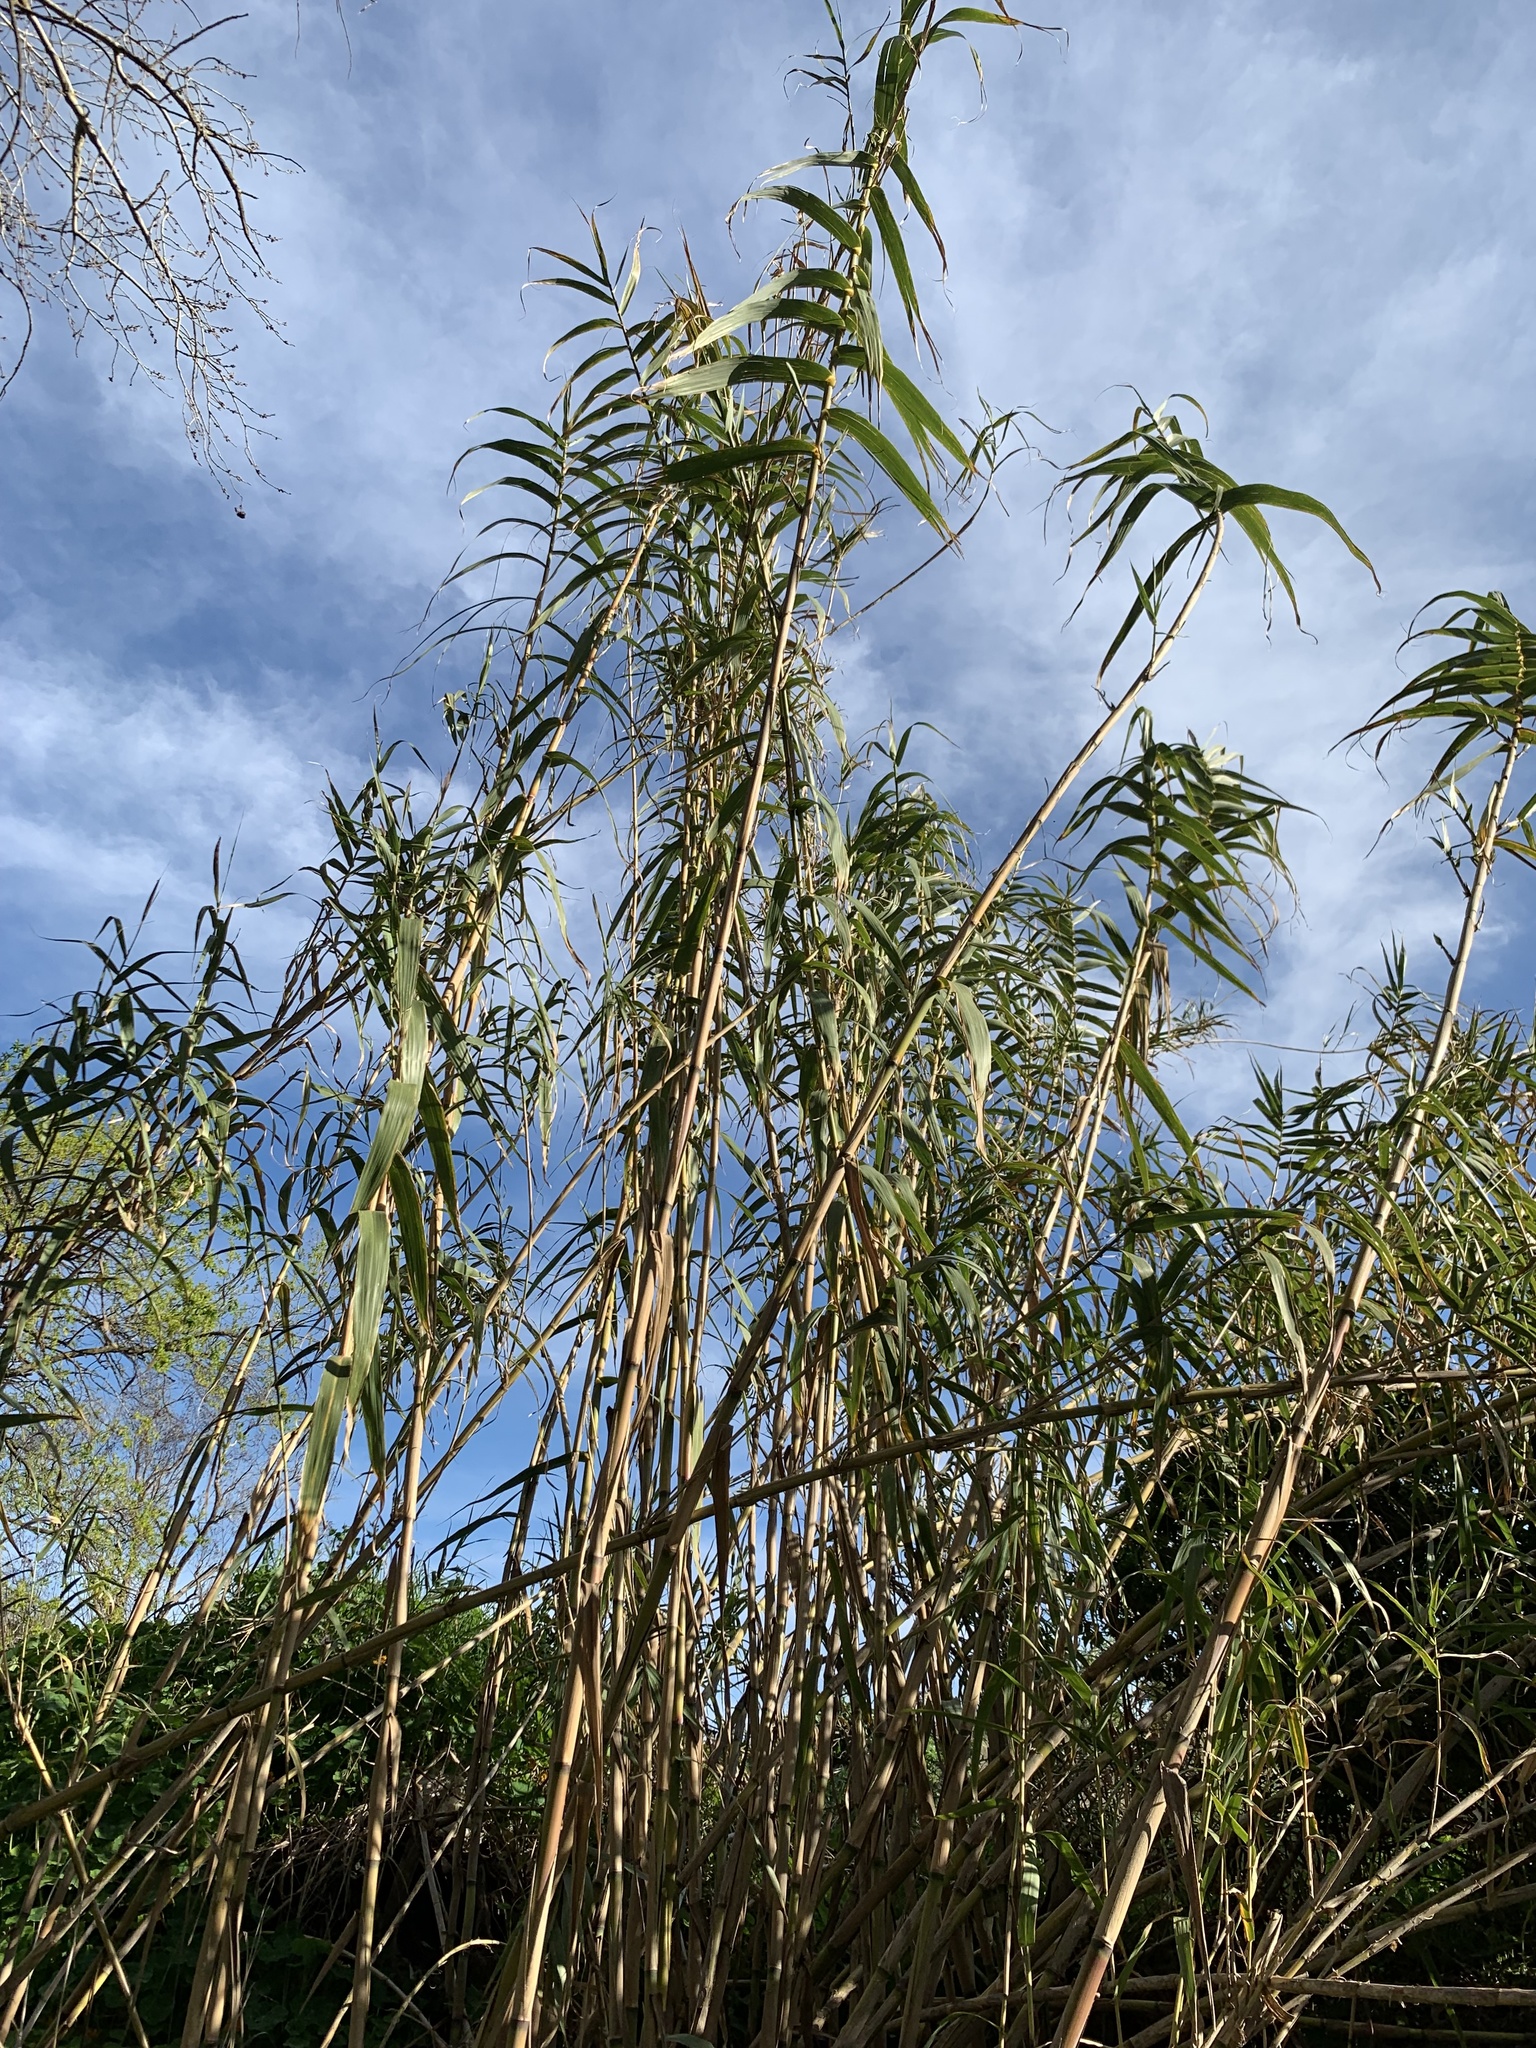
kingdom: Plantae
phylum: Tracheophyta
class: Liliopsida
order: Poales
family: Poaceae
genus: Arundo
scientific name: Arundo donax
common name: Giant reed
